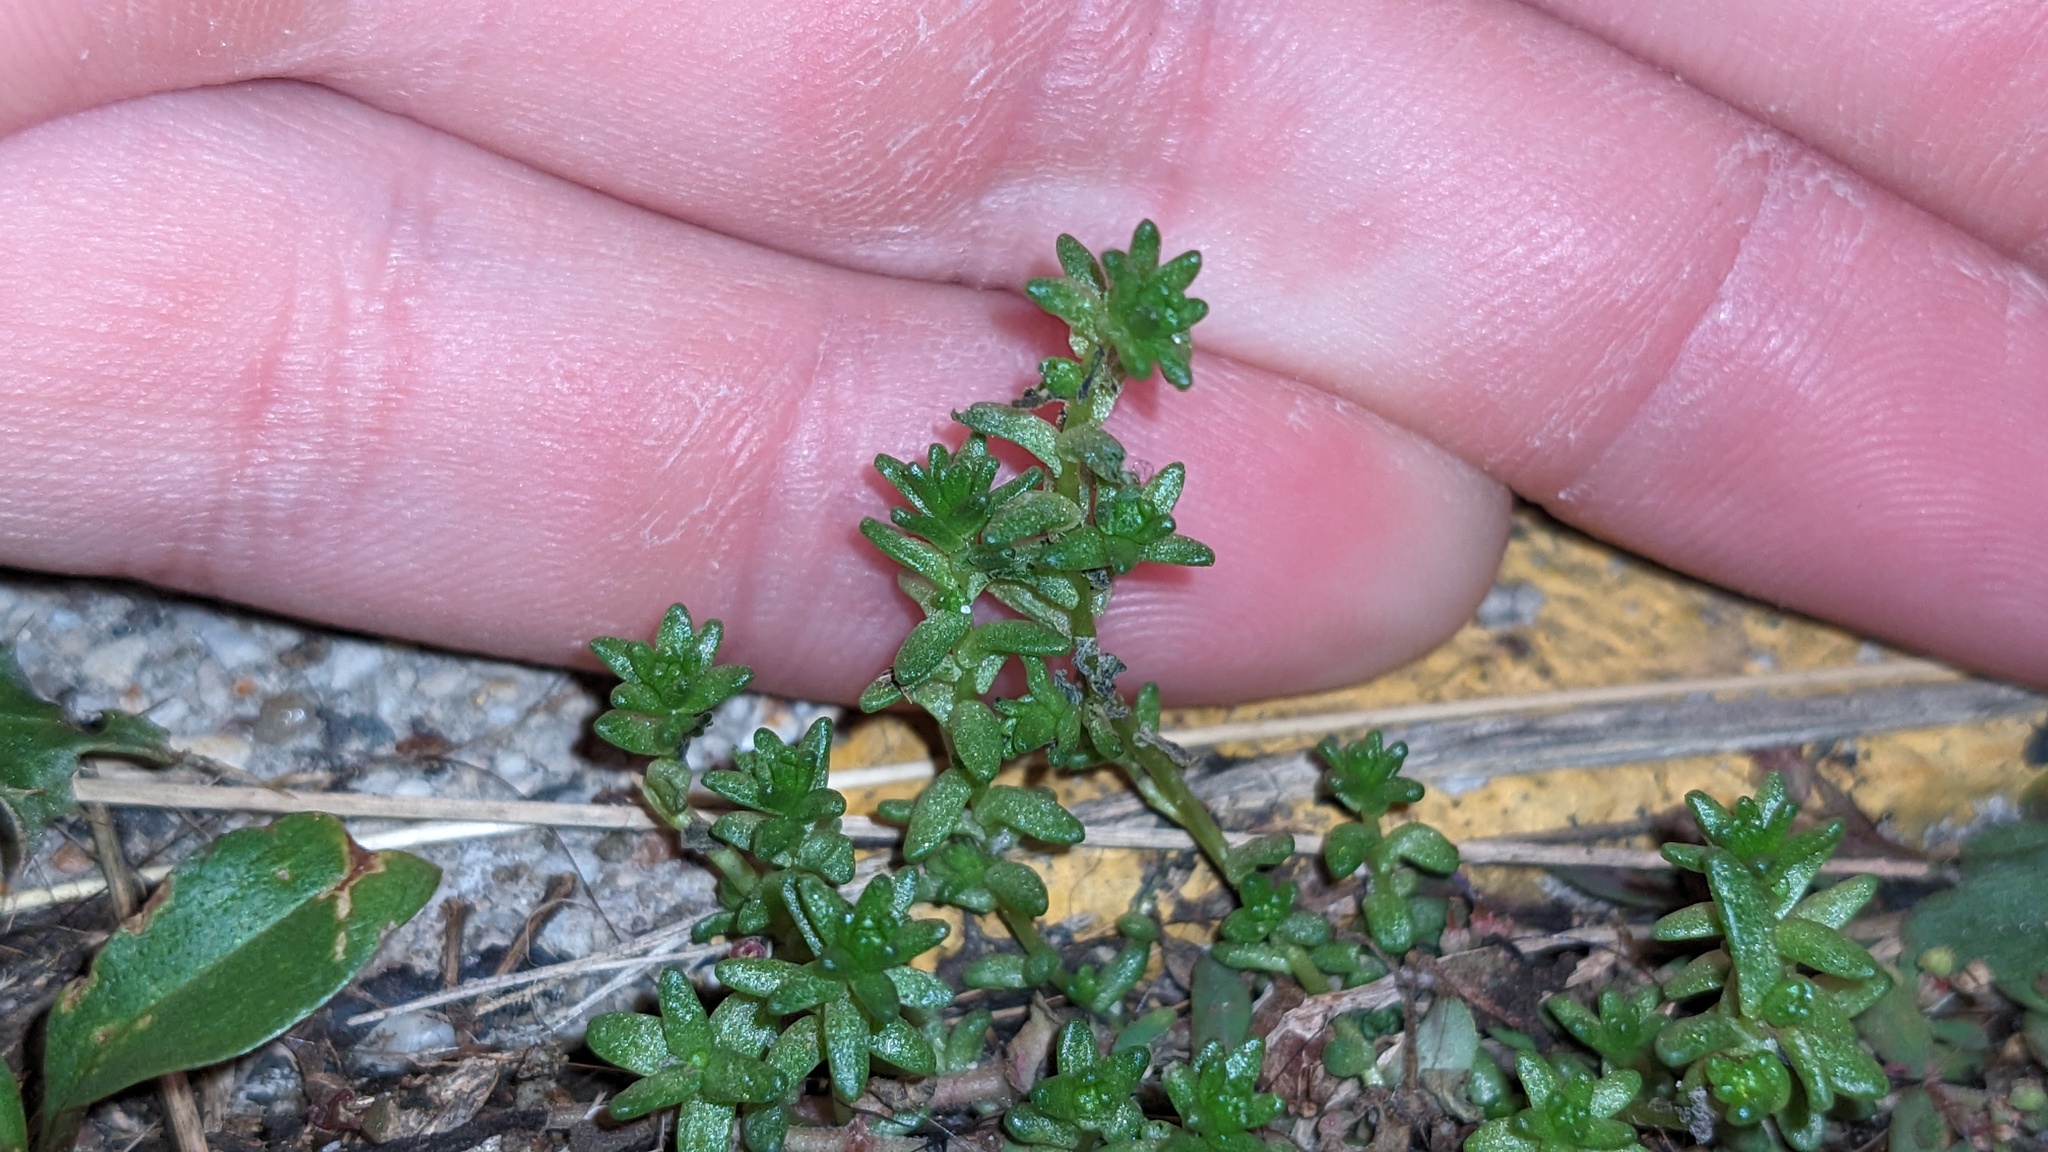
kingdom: Plantae
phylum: Tracheophyta
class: Magnoliopsida
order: Saxifragales
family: Crassulaceae
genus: Sedum
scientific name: Sedum acre
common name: Biting stonecrop
